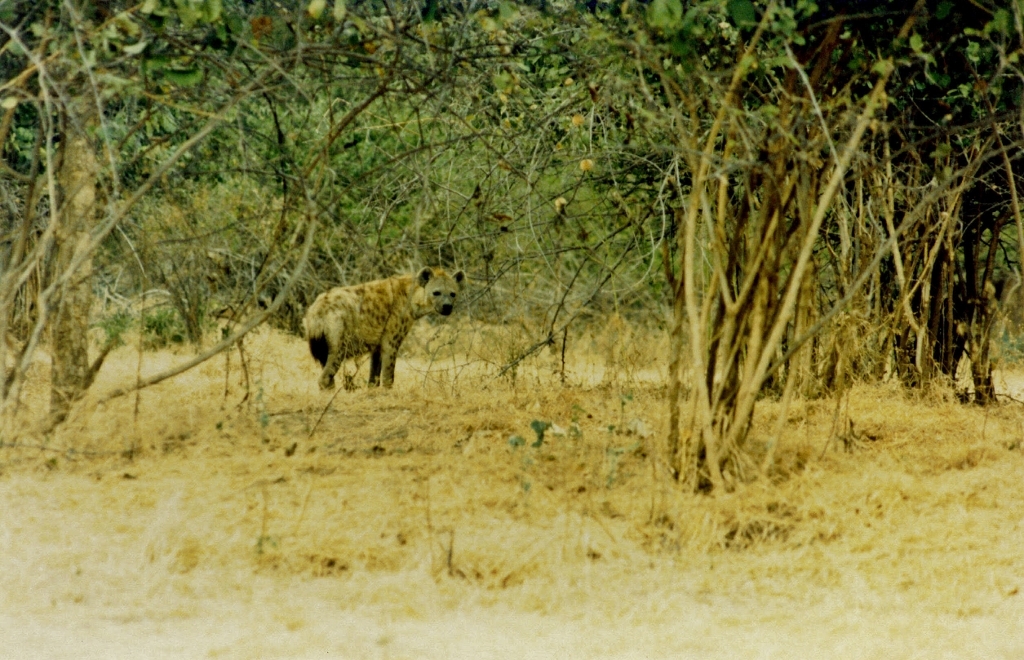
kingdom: Animalia
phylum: Chordata
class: Mammalia
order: Carnivora
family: Hyaenidae
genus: Crocuta
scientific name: Crocuta crocuta
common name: Spotted hyaena
